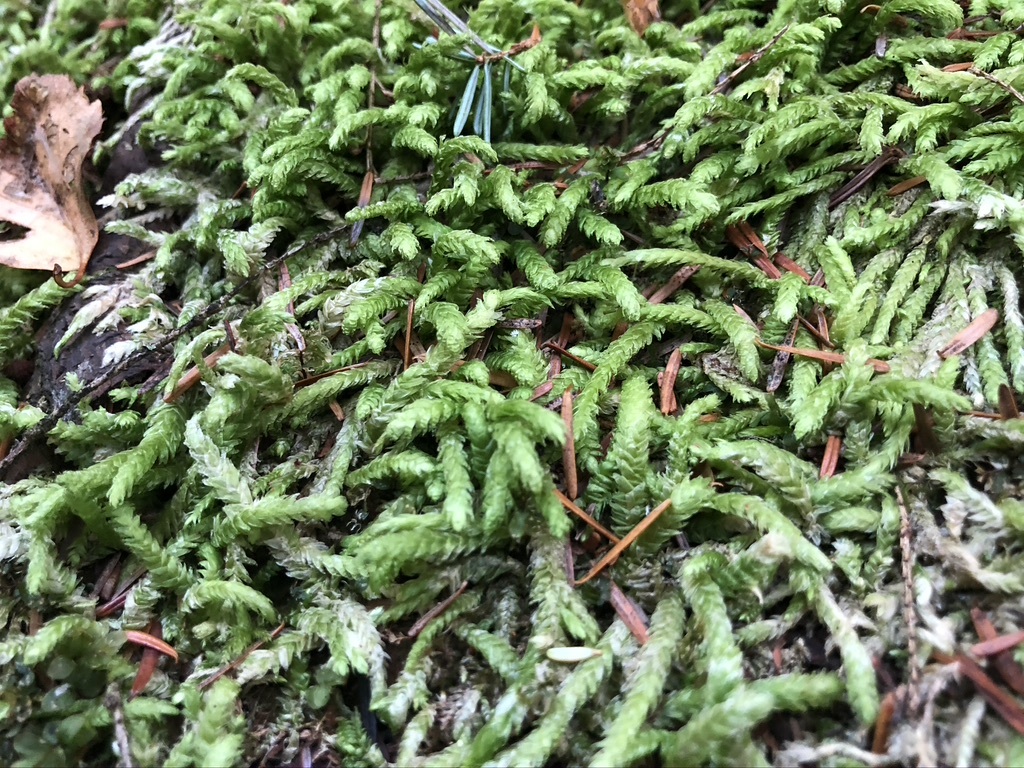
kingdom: Plantae
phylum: Bryophyta
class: Bryopsida
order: Hypnales
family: Plagiotheciaceae
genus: Plagiothecium
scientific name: Plagiothecium undulatum
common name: Waved silk-moss
